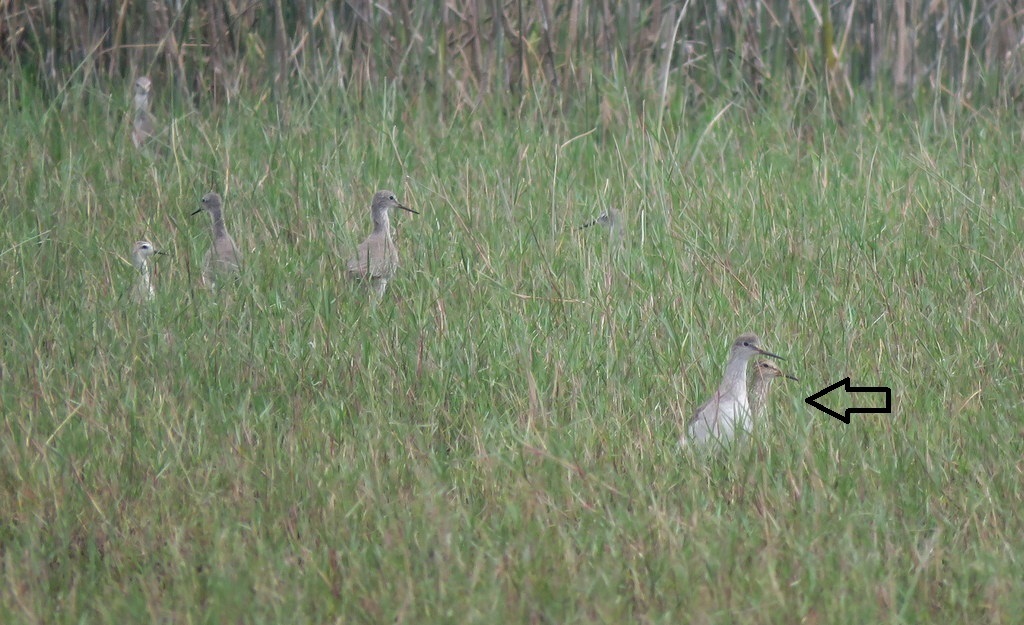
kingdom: Animalia
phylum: Chordata
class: Aves
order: Charadriiformes
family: Scolopacidae
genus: Calidris
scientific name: Calidris melanotos
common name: Pectoral sandpiper
